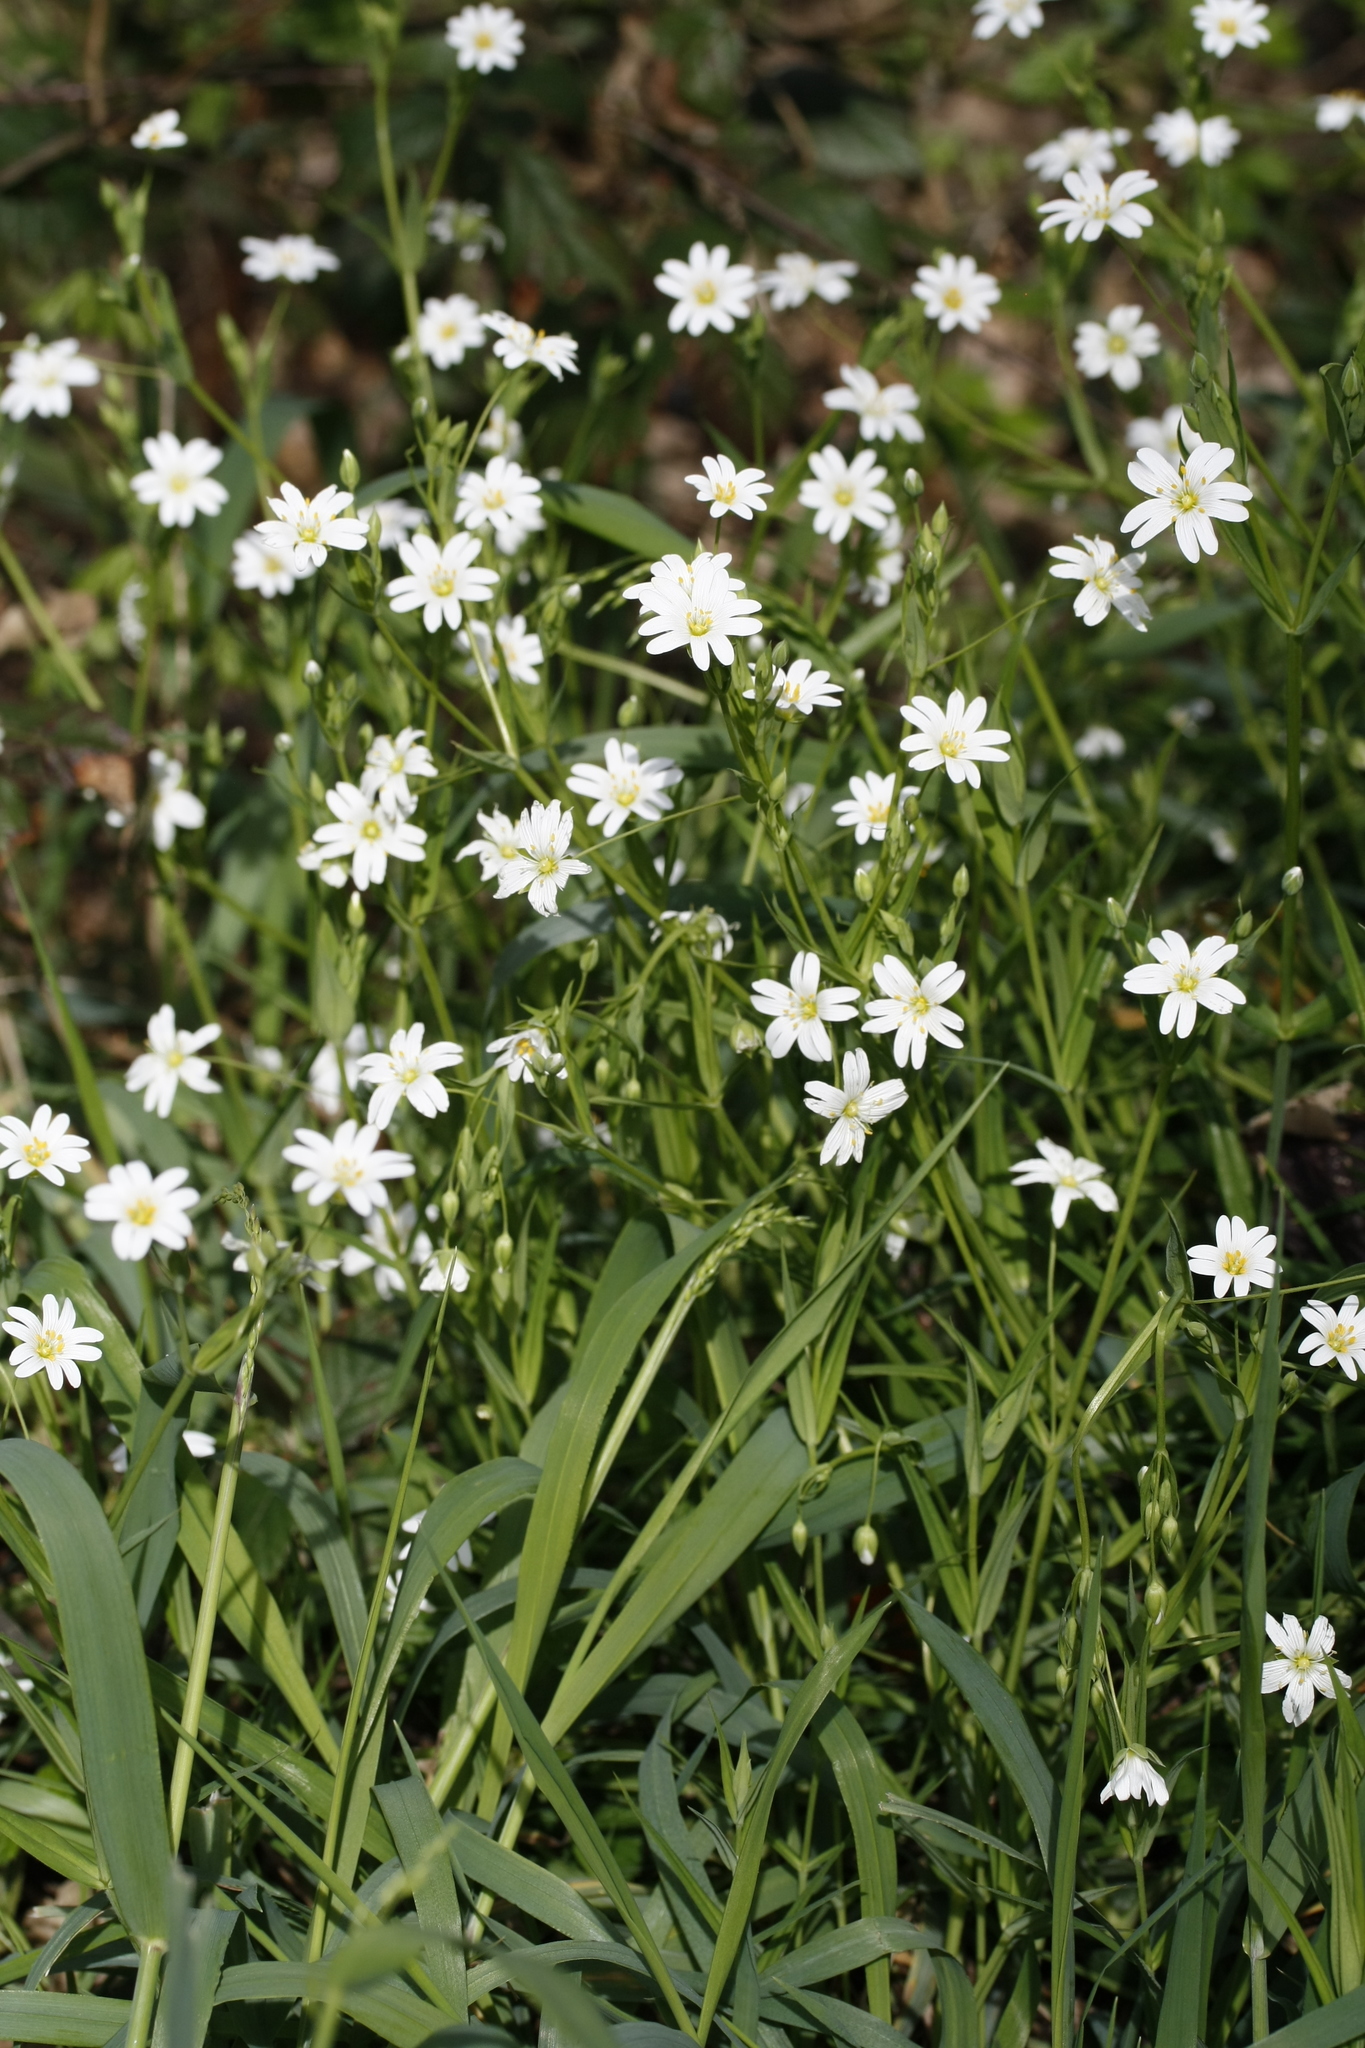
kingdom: Plantae
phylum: Tracheophyta
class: Magnoliopsida
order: Caryophyllales
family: Caryophyllaceae
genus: Rabelera
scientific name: Rabelera holostea
